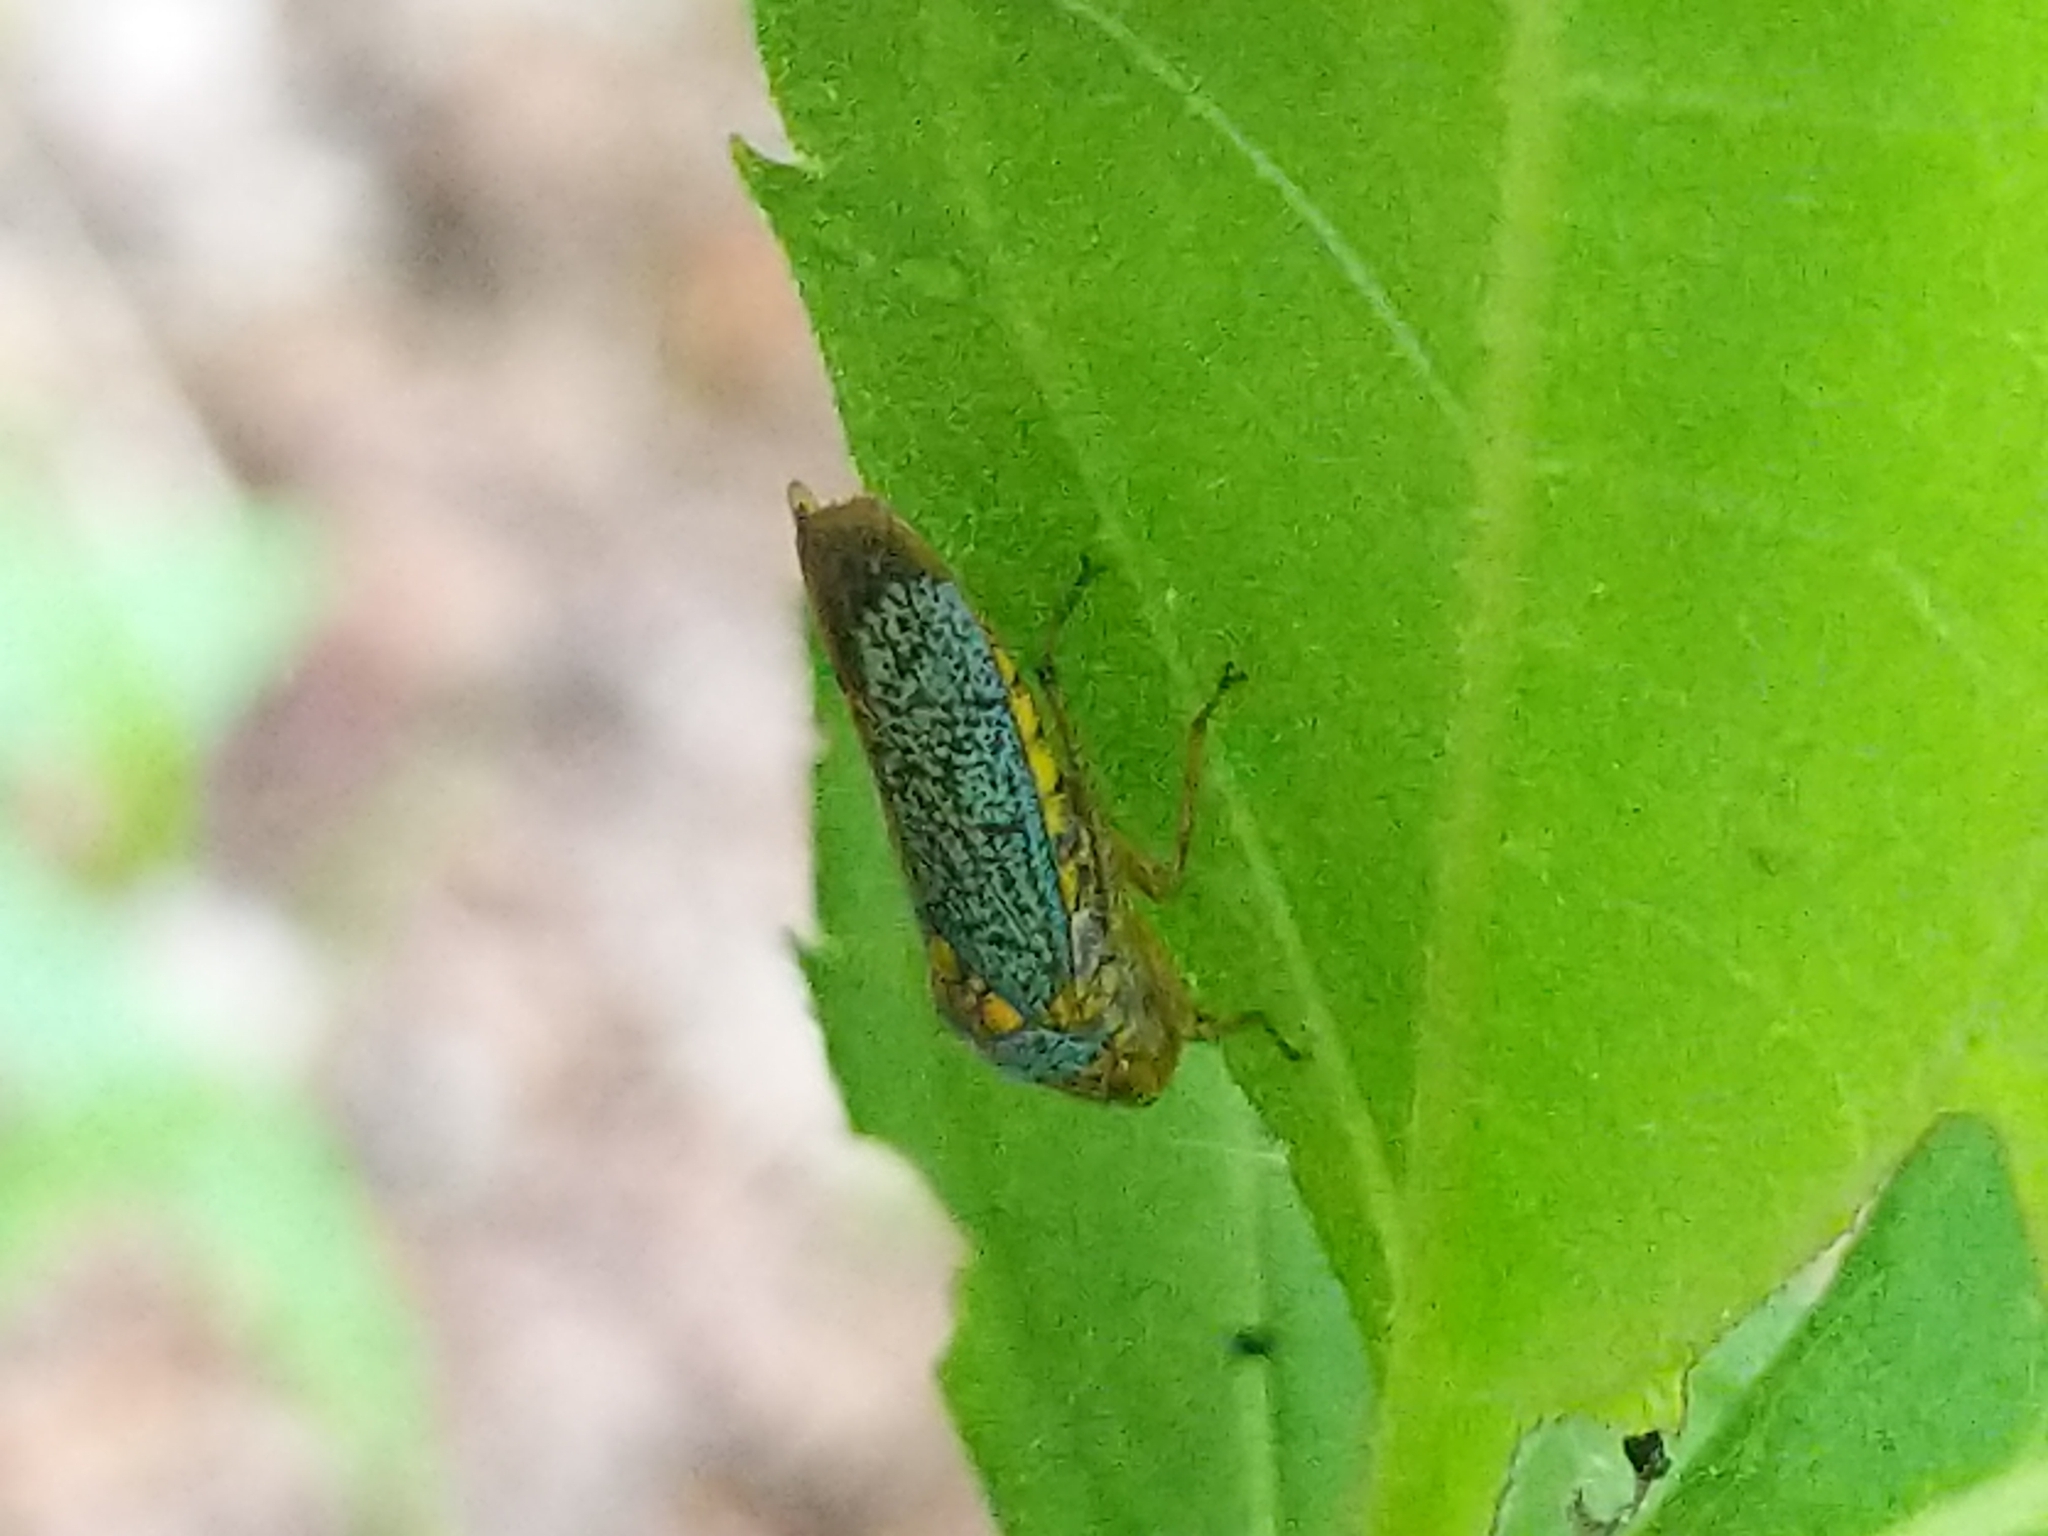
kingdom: Animalia
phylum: Arthropoda
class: Insecta
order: Hemiptera
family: Cicadellidae
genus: Oncometopia
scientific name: Oncometopia orbona
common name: Broad-headed sharpshooter
